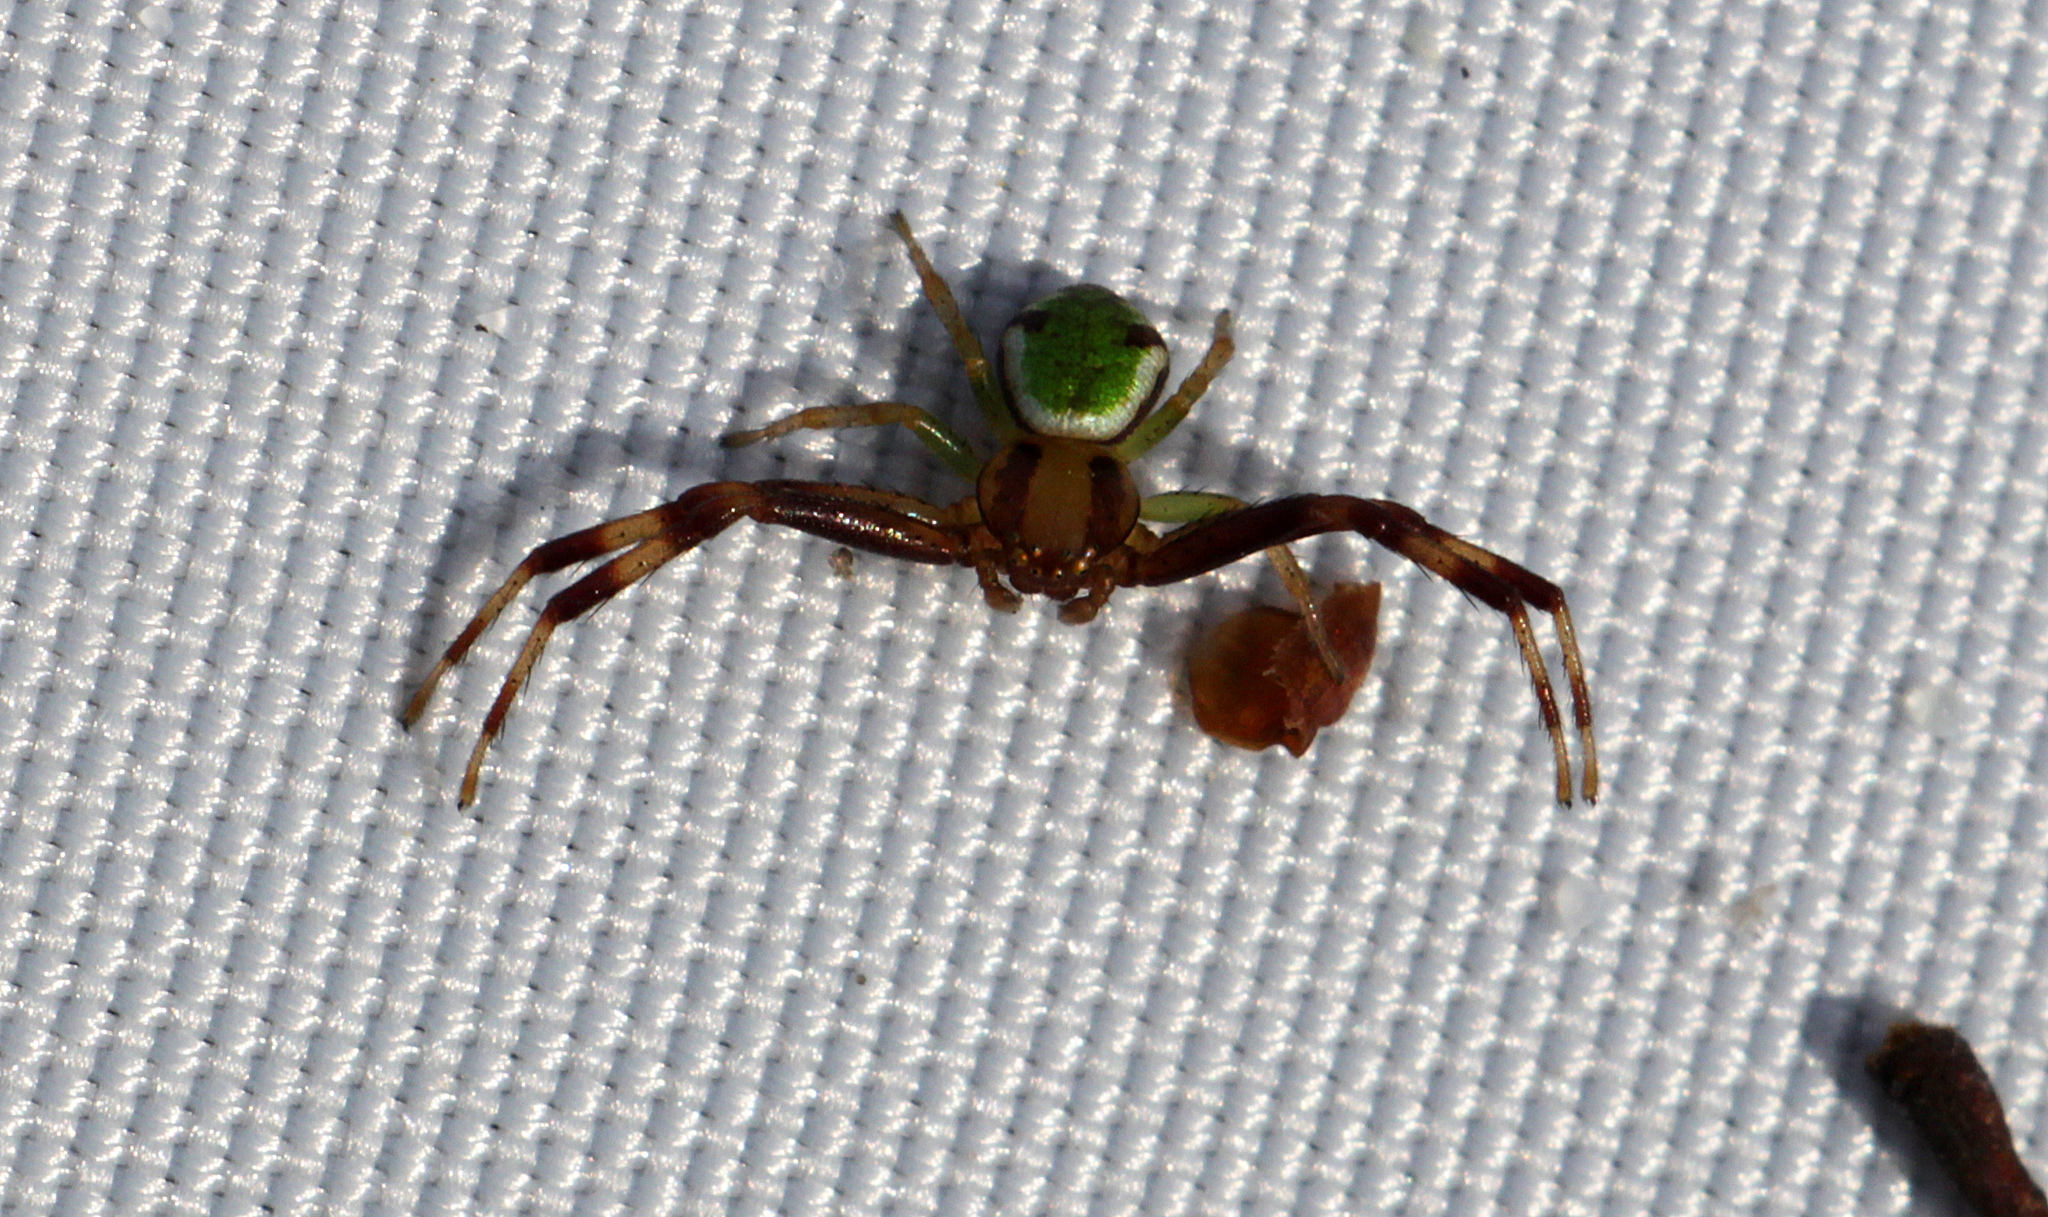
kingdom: Animalia
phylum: Arthropoda
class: Arachnida
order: Araneae
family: Thomisidae
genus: Ebrechtella
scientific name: Ebrechtella tricuspidata
